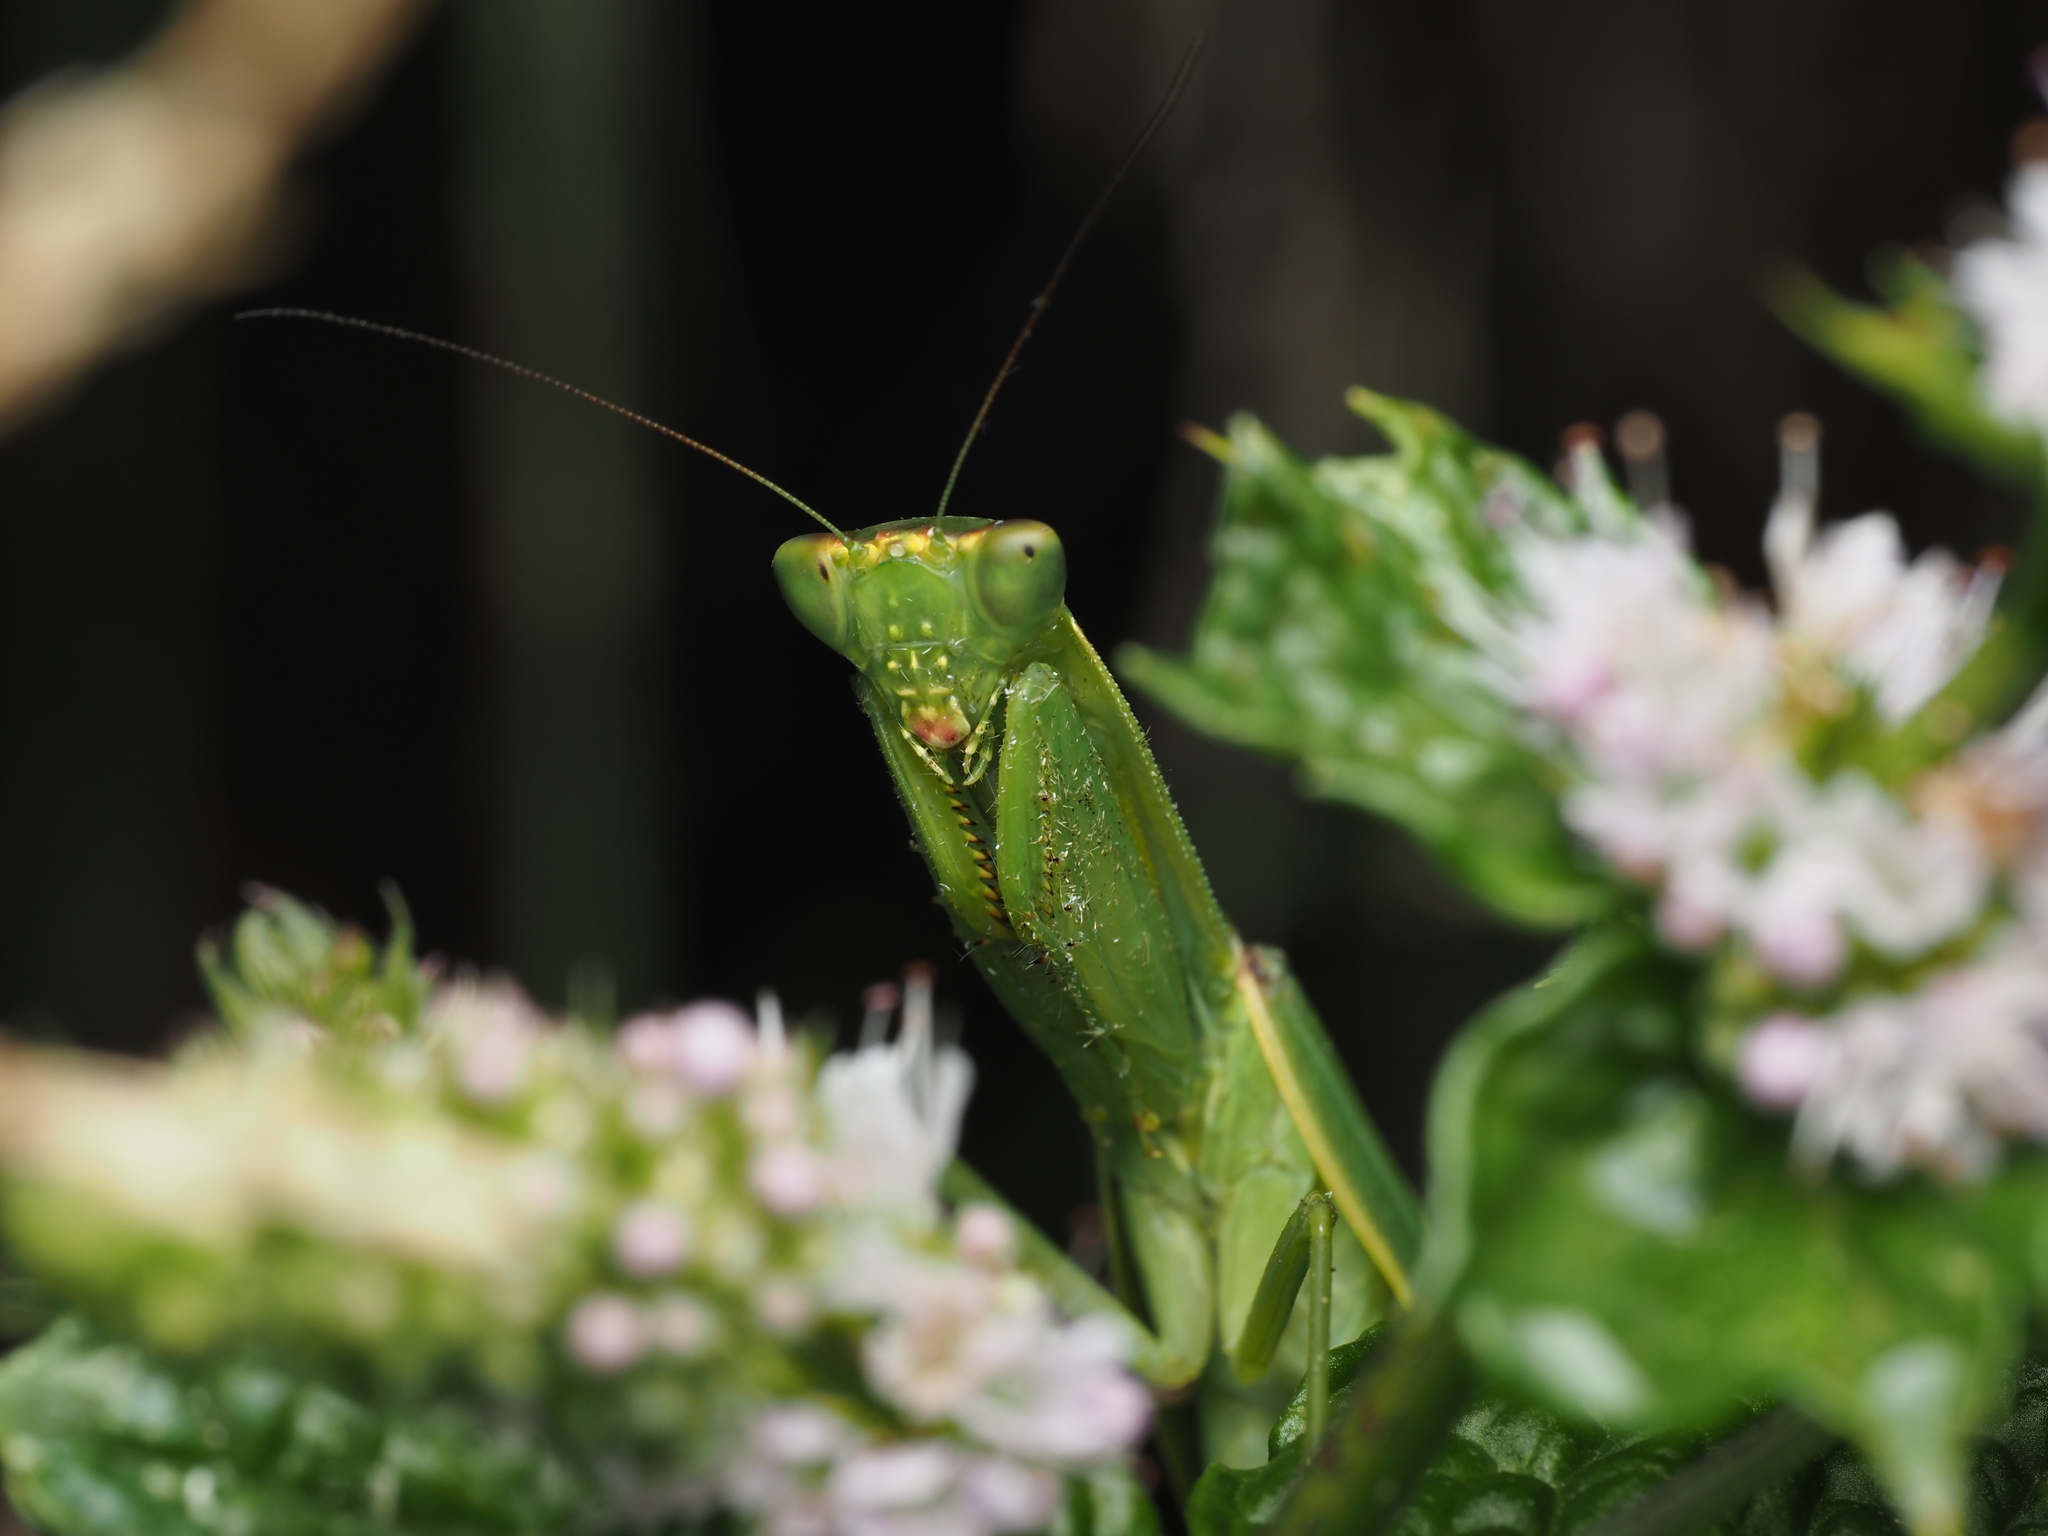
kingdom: Animalia
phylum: Arthropoda
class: Insecta
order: Mantodea
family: Mantidae
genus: Orthodera
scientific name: Orthodera novaezealandiae
